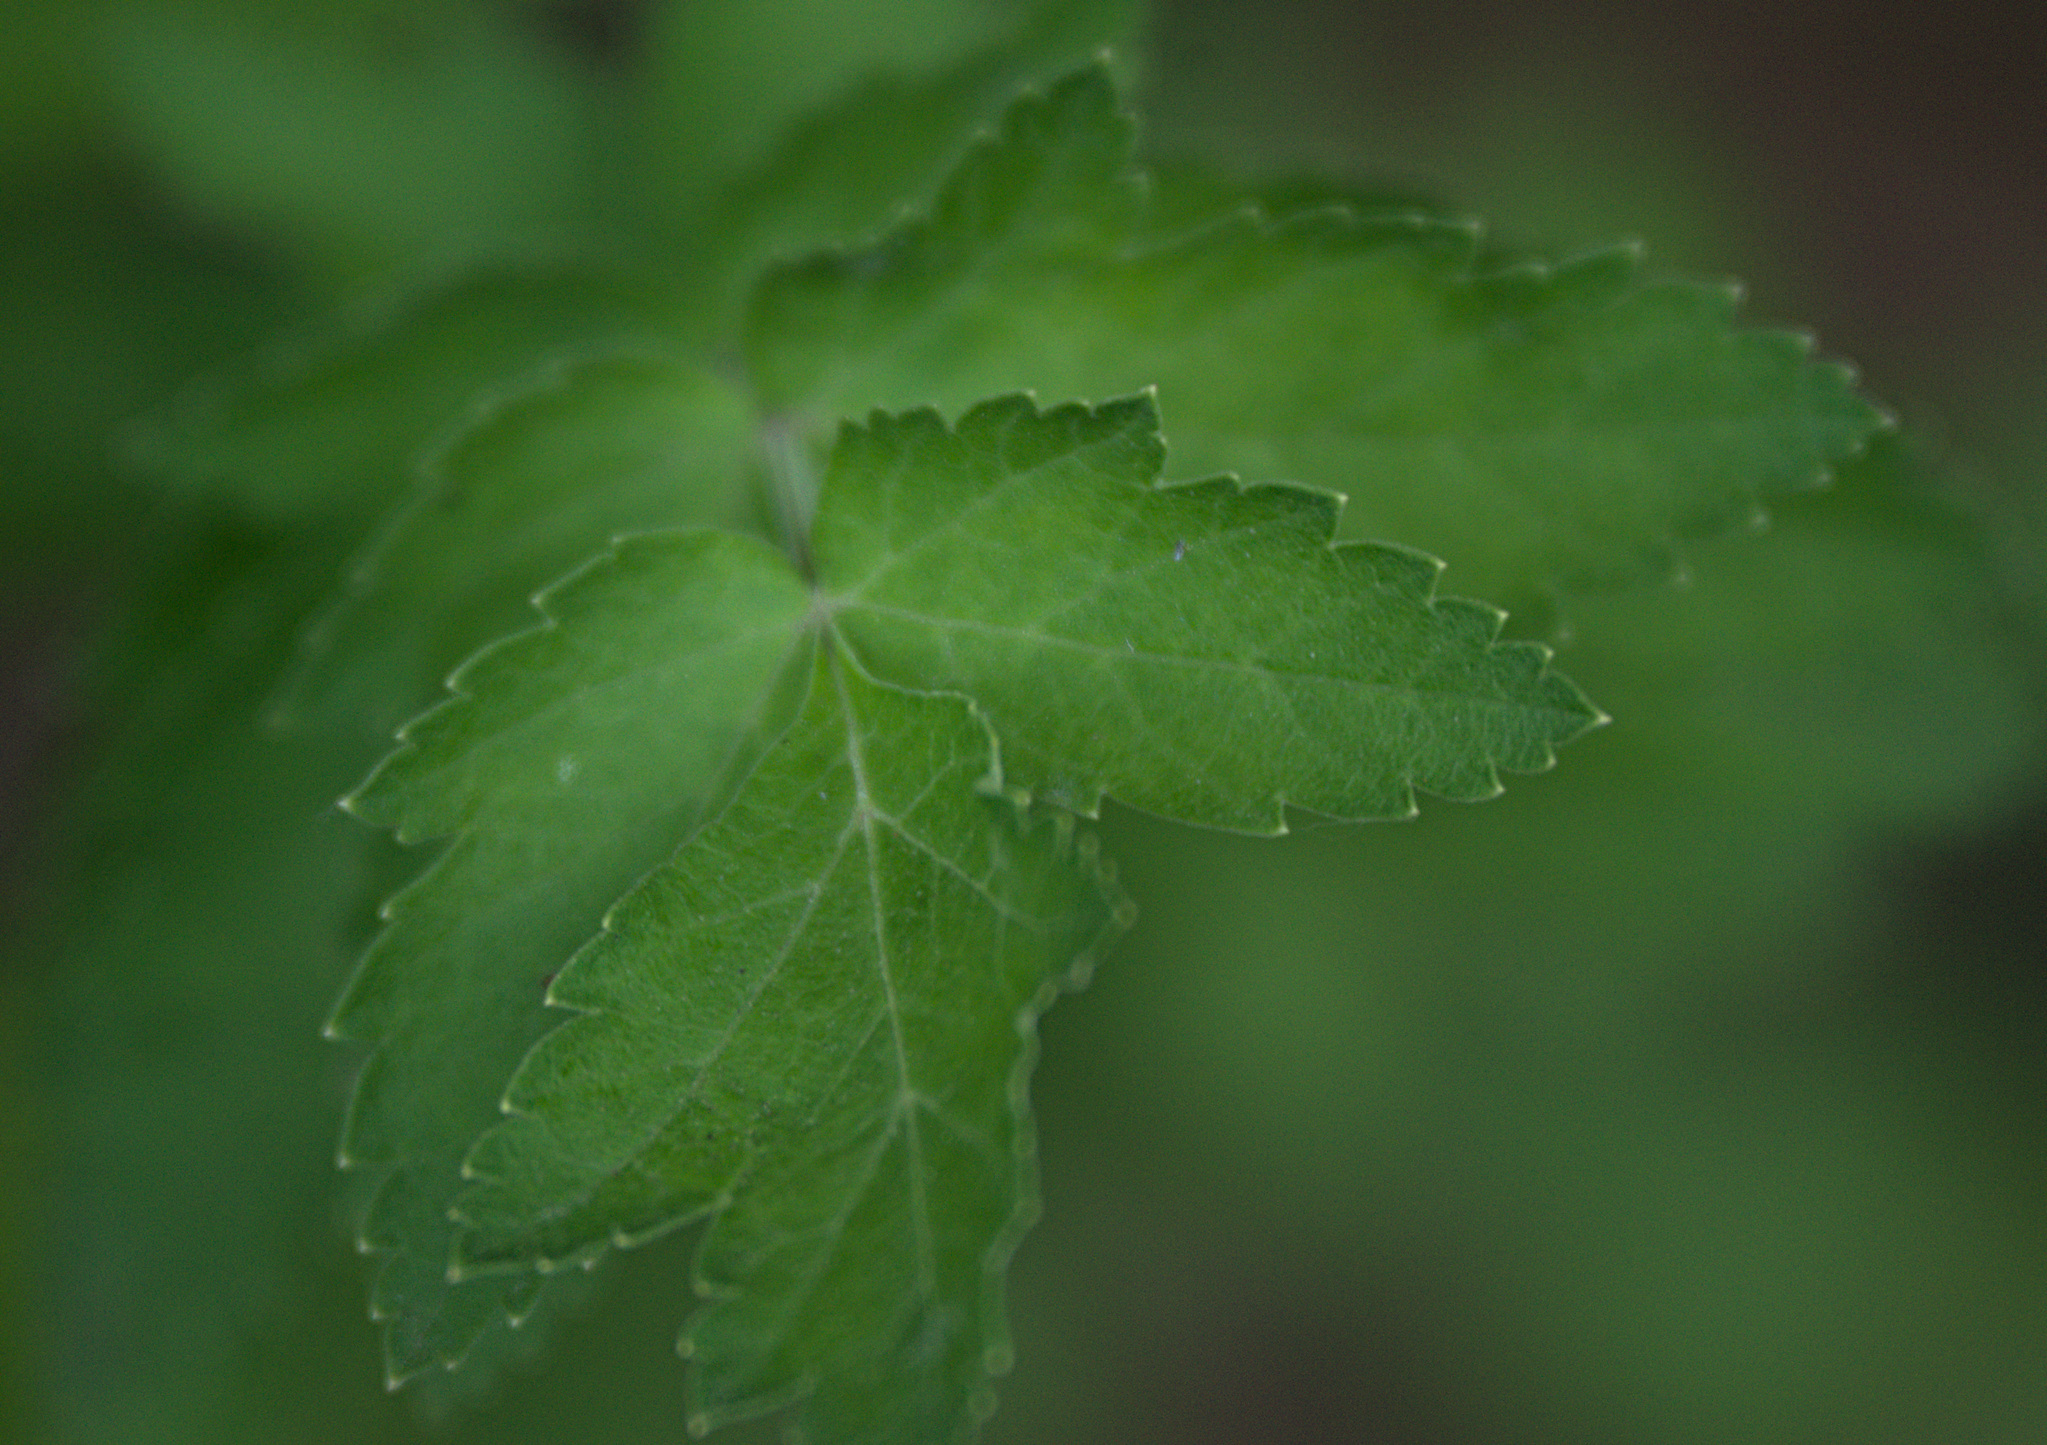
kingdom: Plantae
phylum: Tracheophyta
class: Magnoliopsida
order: Apiales
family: Apiaceae
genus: Pastinaca
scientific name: Pastinaca sativa
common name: Wild parsnip
